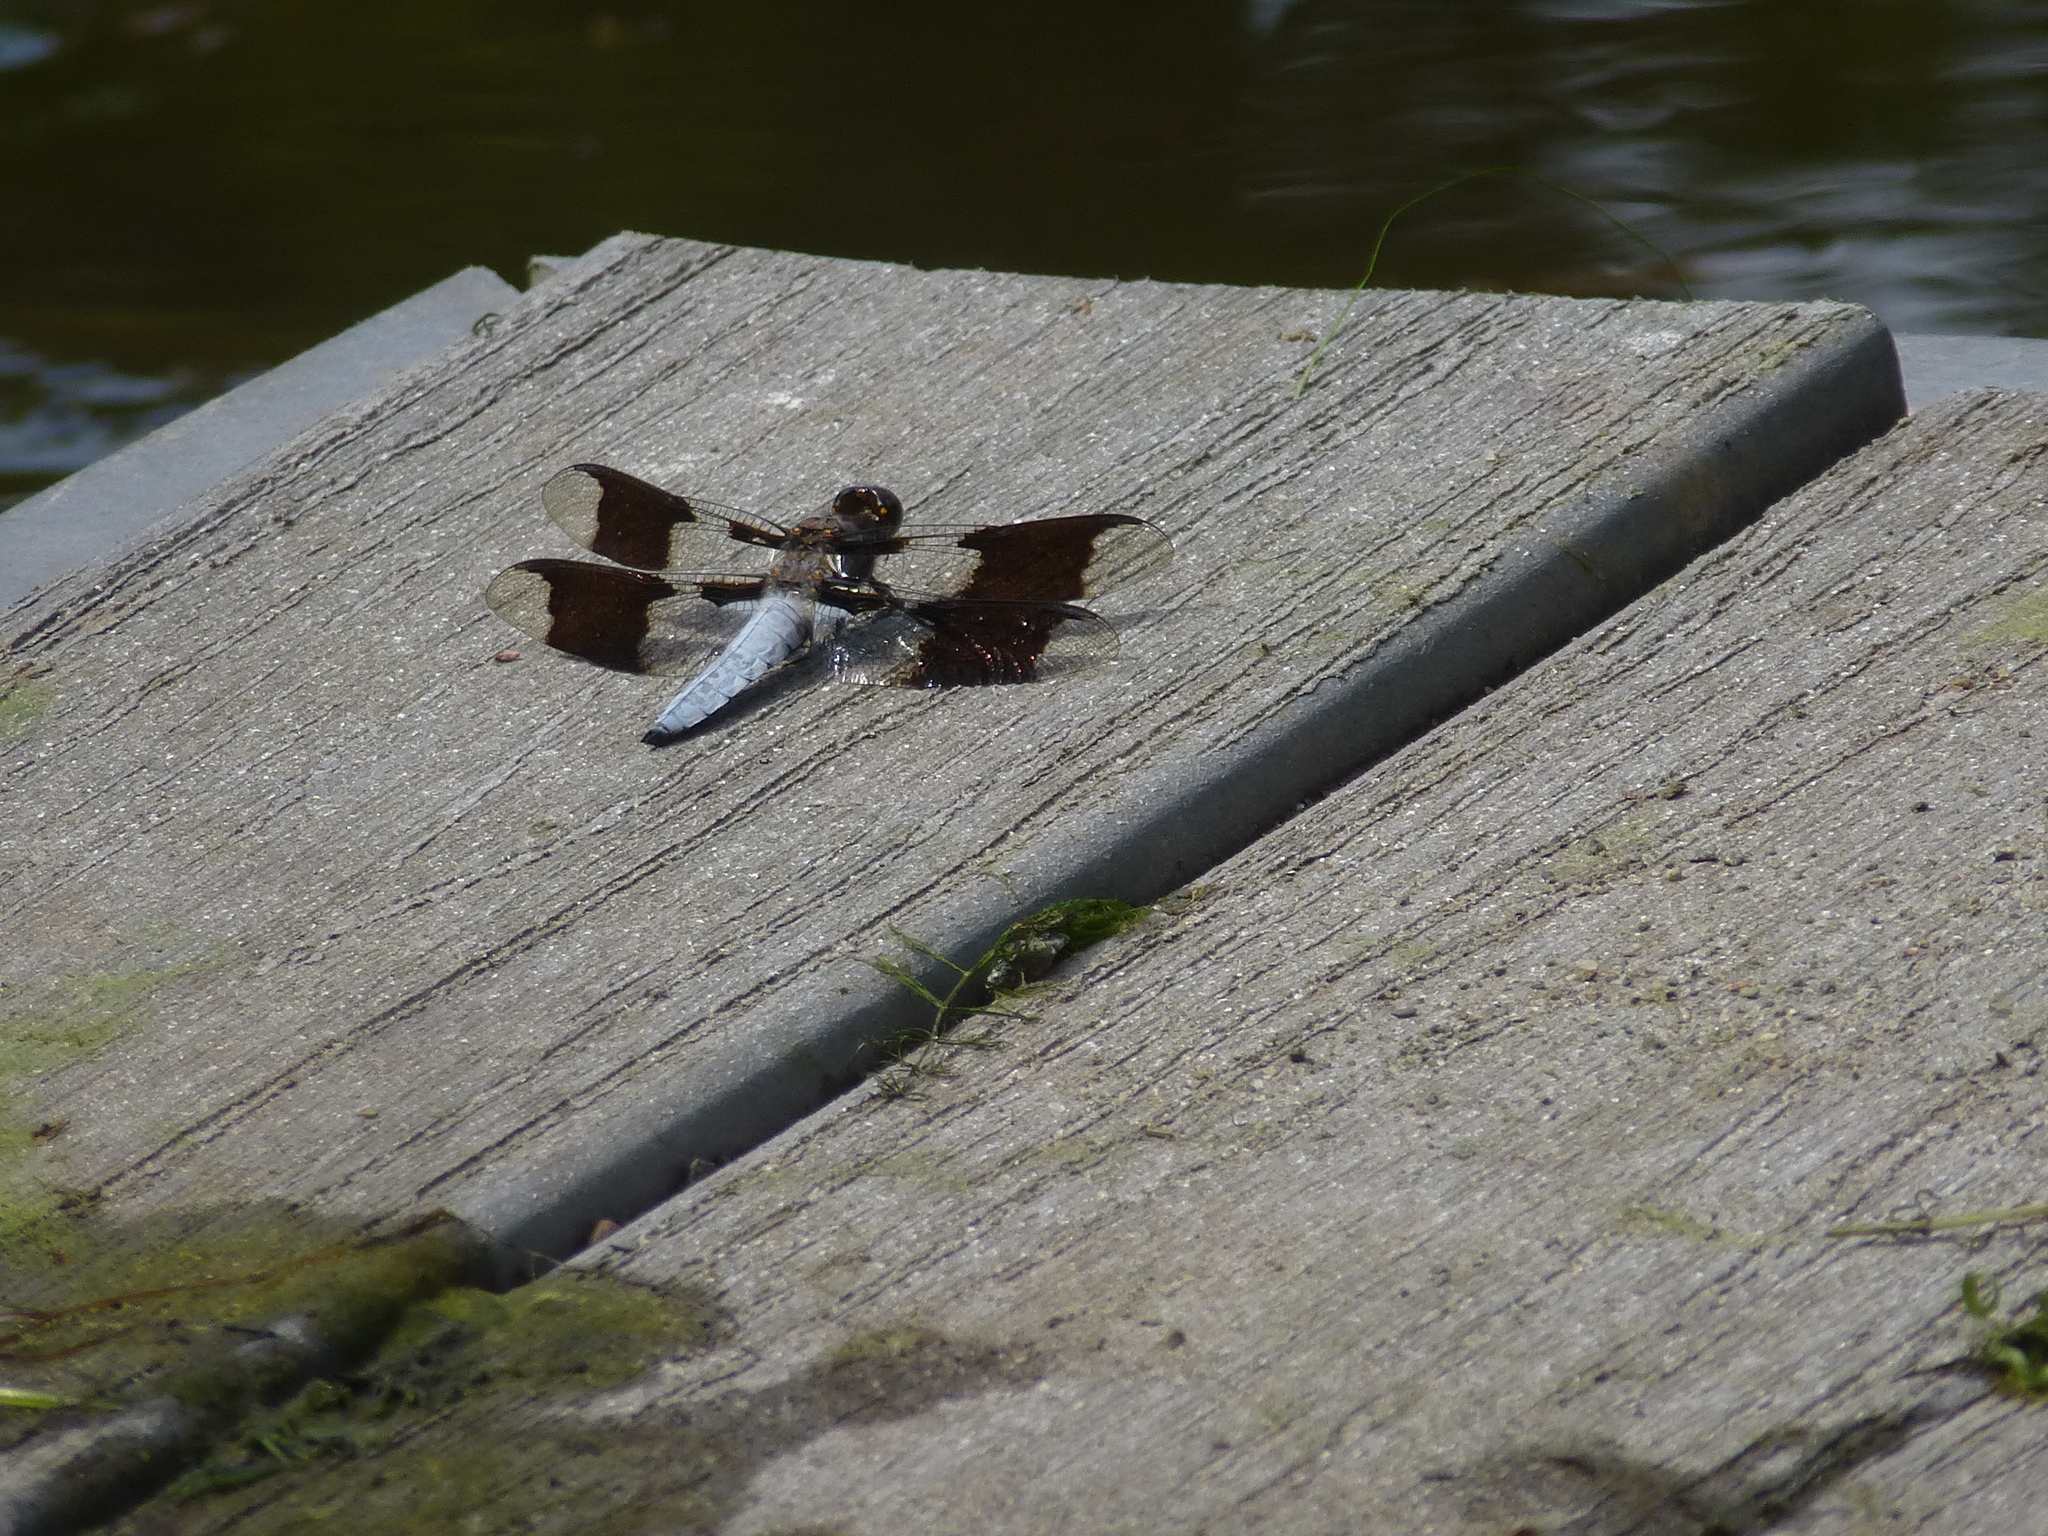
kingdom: Animalia
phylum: Arthropoda
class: Insecta
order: Odonata
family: Libellulidae
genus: Plathemis
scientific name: Plathemis lydia
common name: Common whitetail
